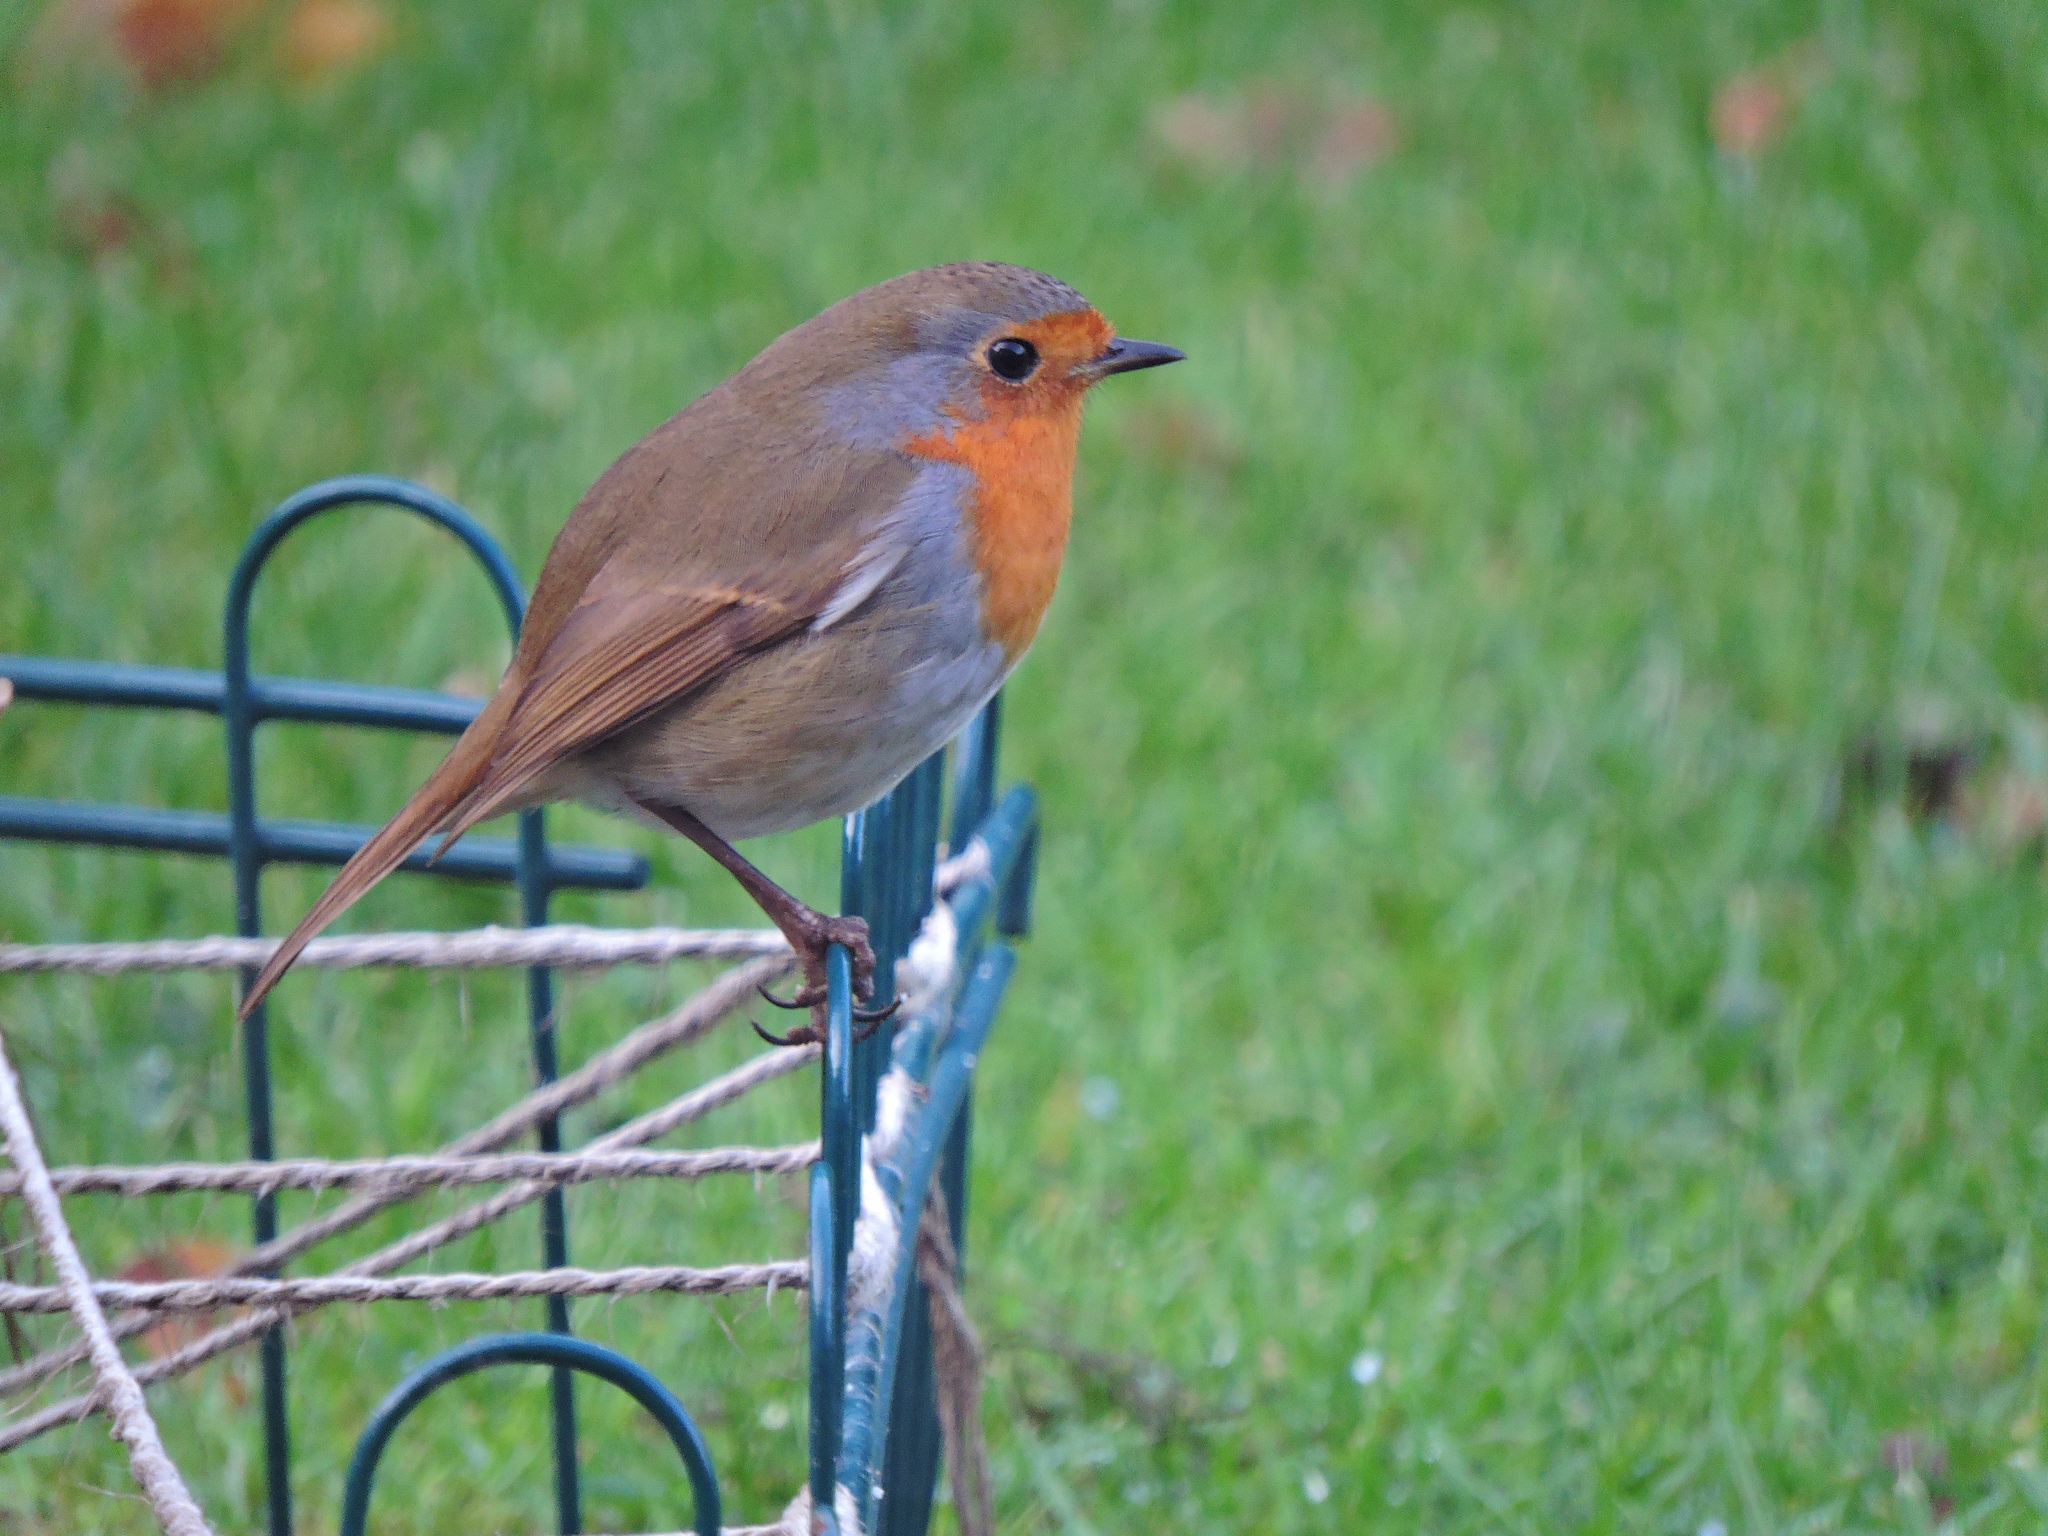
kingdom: Animalia
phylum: Chordata
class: Aves
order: Passeriformes
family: Muscicapidae
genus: Erithacus
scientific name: Erithacus rubecula
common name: European robin
